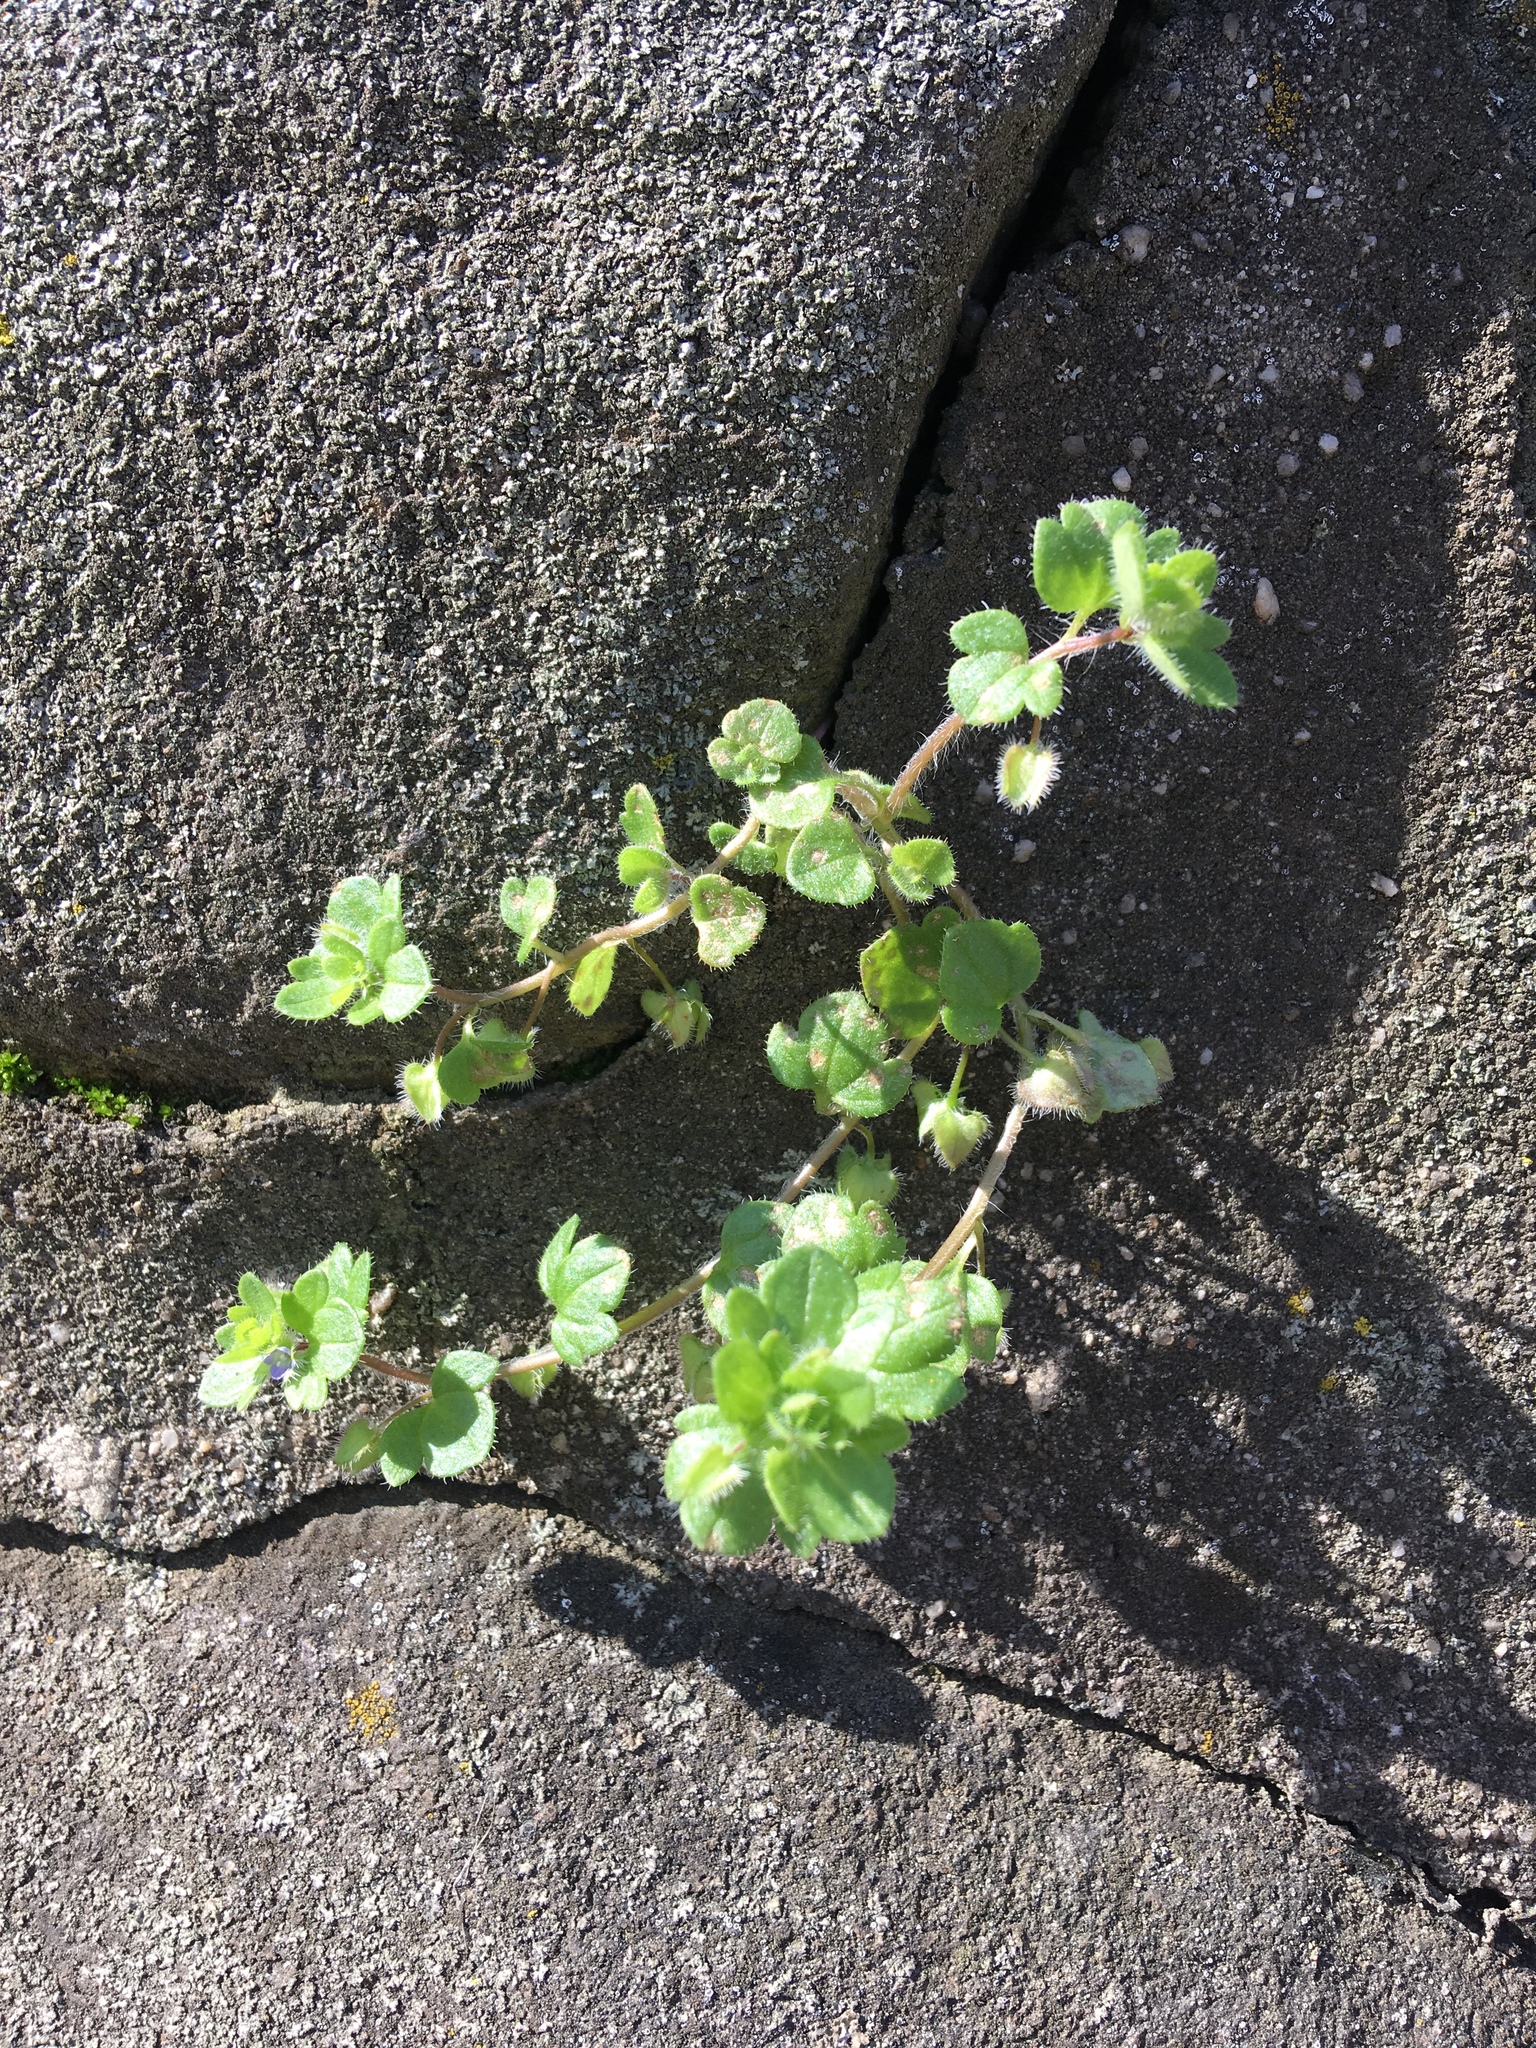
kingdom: Plantae
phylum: Tracheophyta
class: Magnoliopsida
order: Lamiales
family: Plantaginaceae
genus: Veronica
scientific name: Veronica hederifolia
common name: Ivy-leaved speedwell
